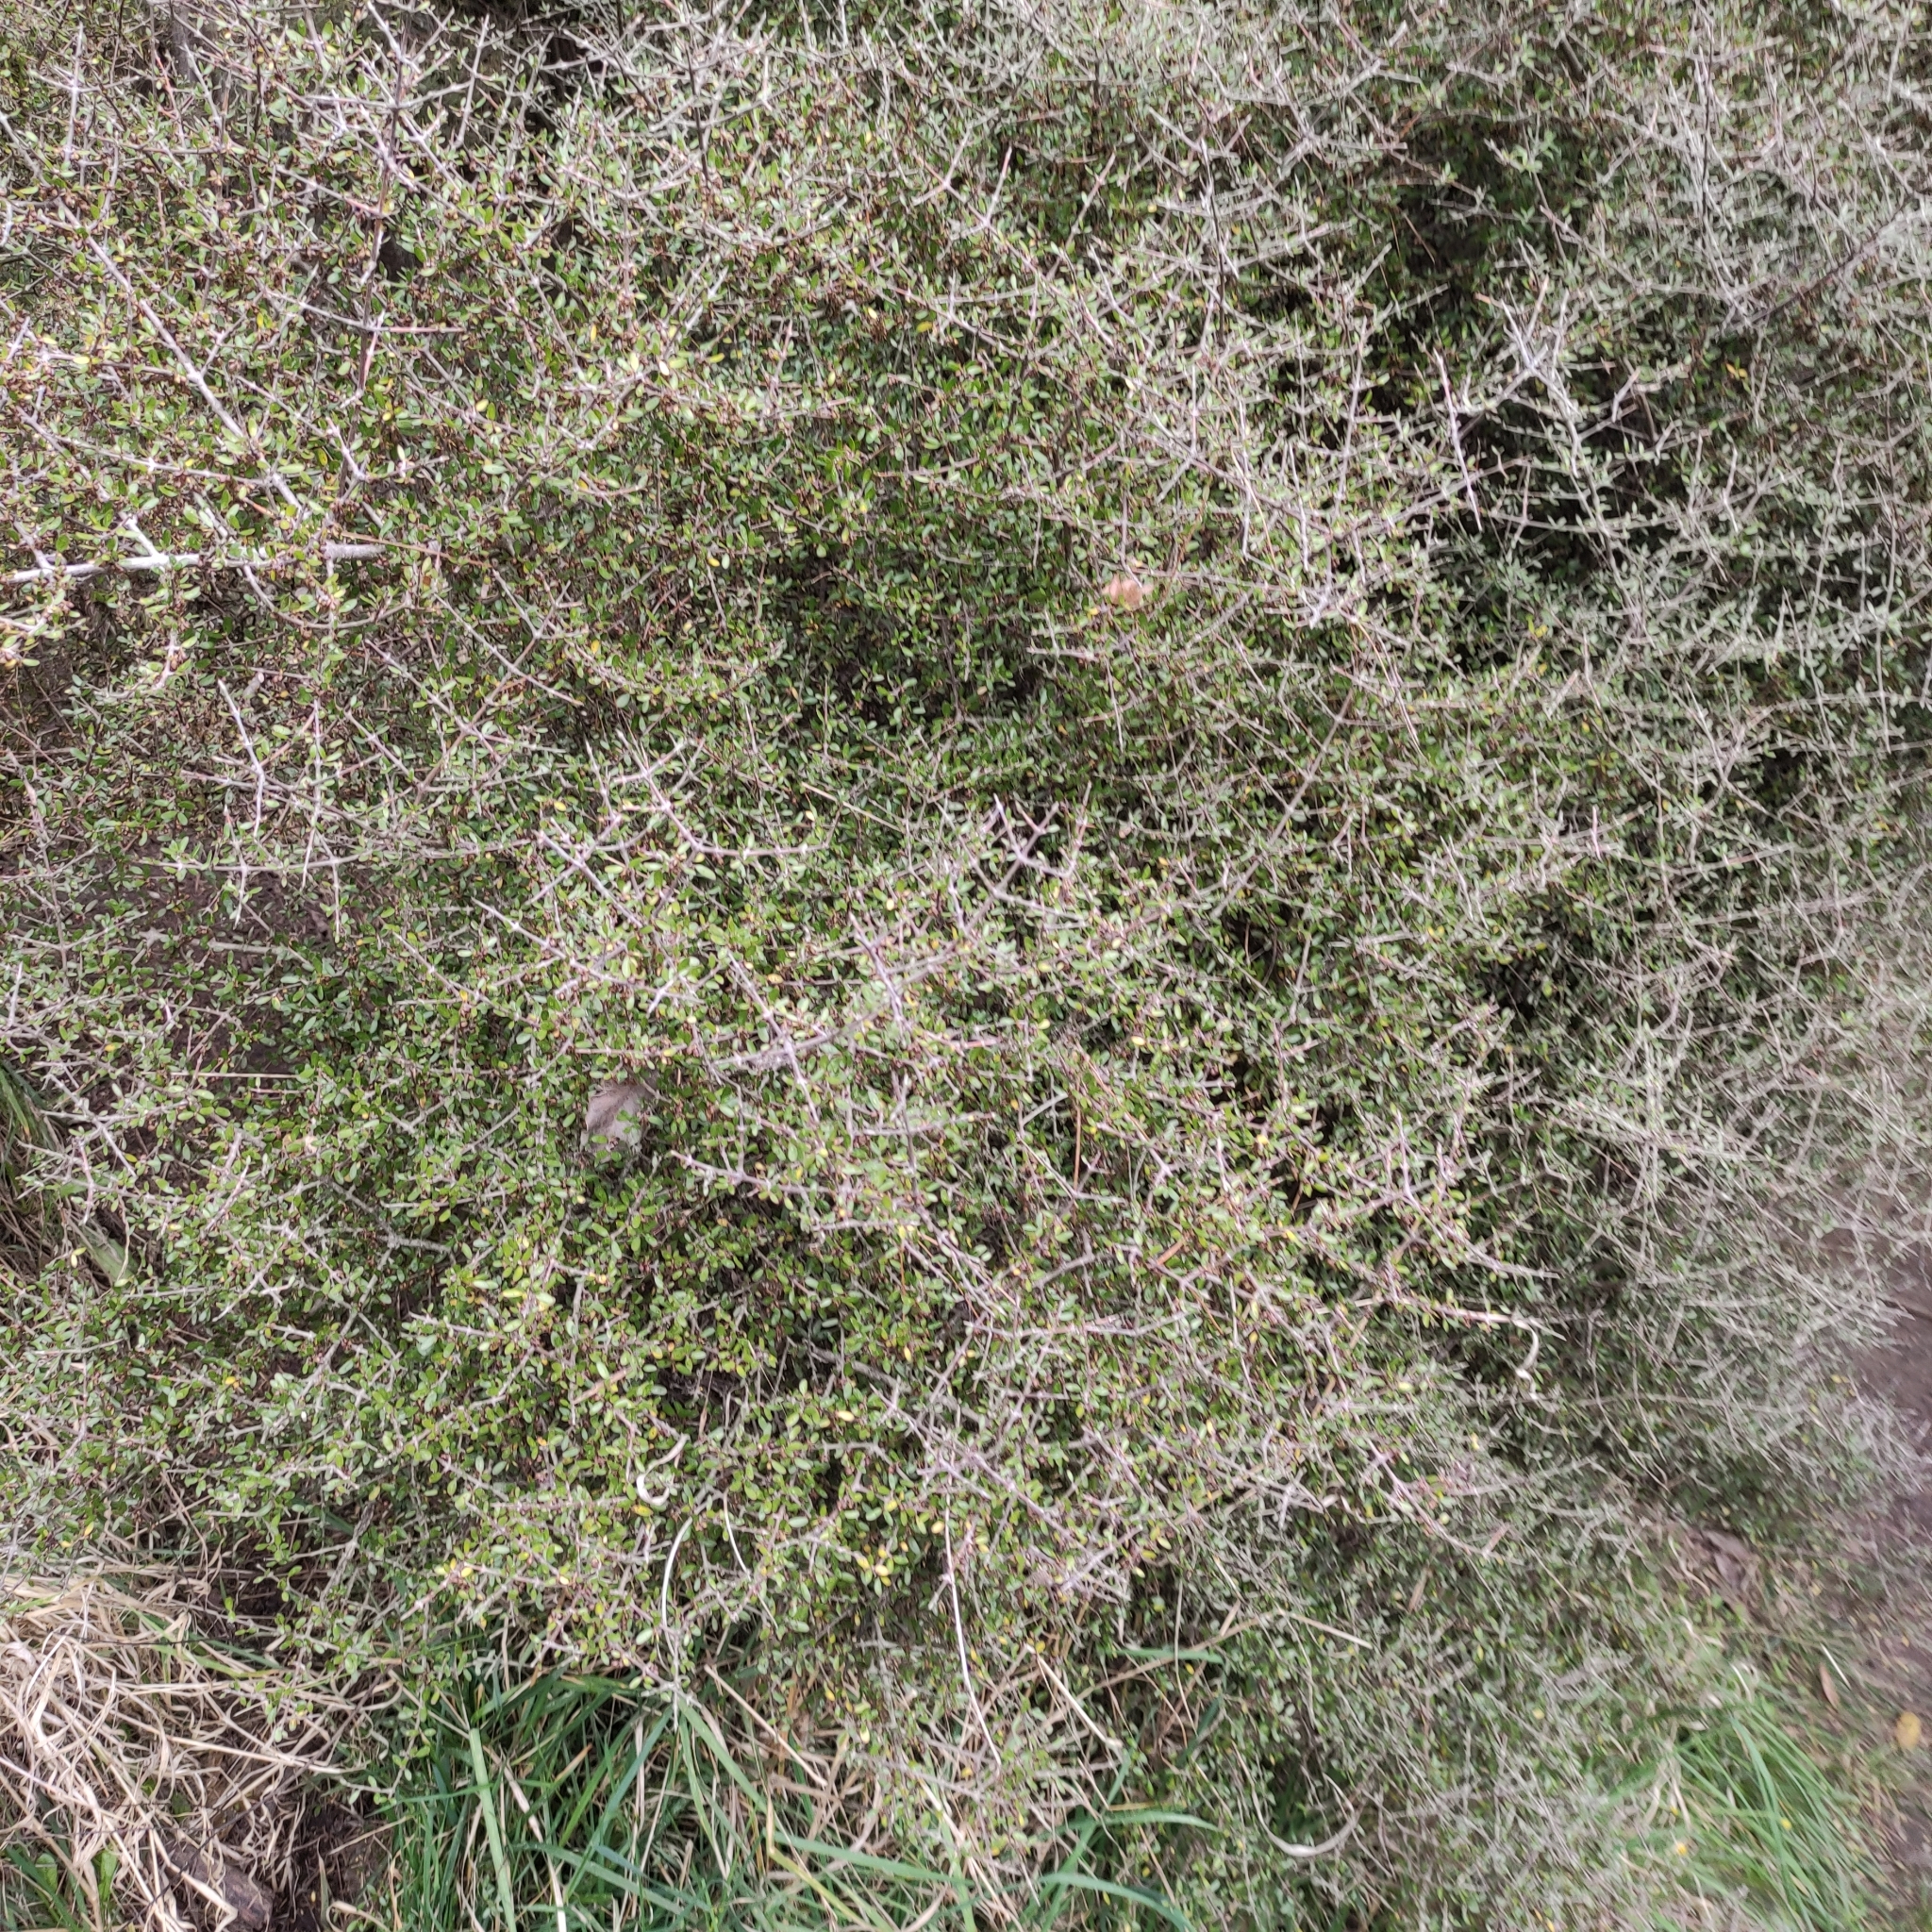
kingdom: Plantae
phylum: Tracheophyta
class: Magnoliopsida
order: Gentianales
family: Rubiaceae
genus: Coprosma
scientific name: Coprosma propinqua
